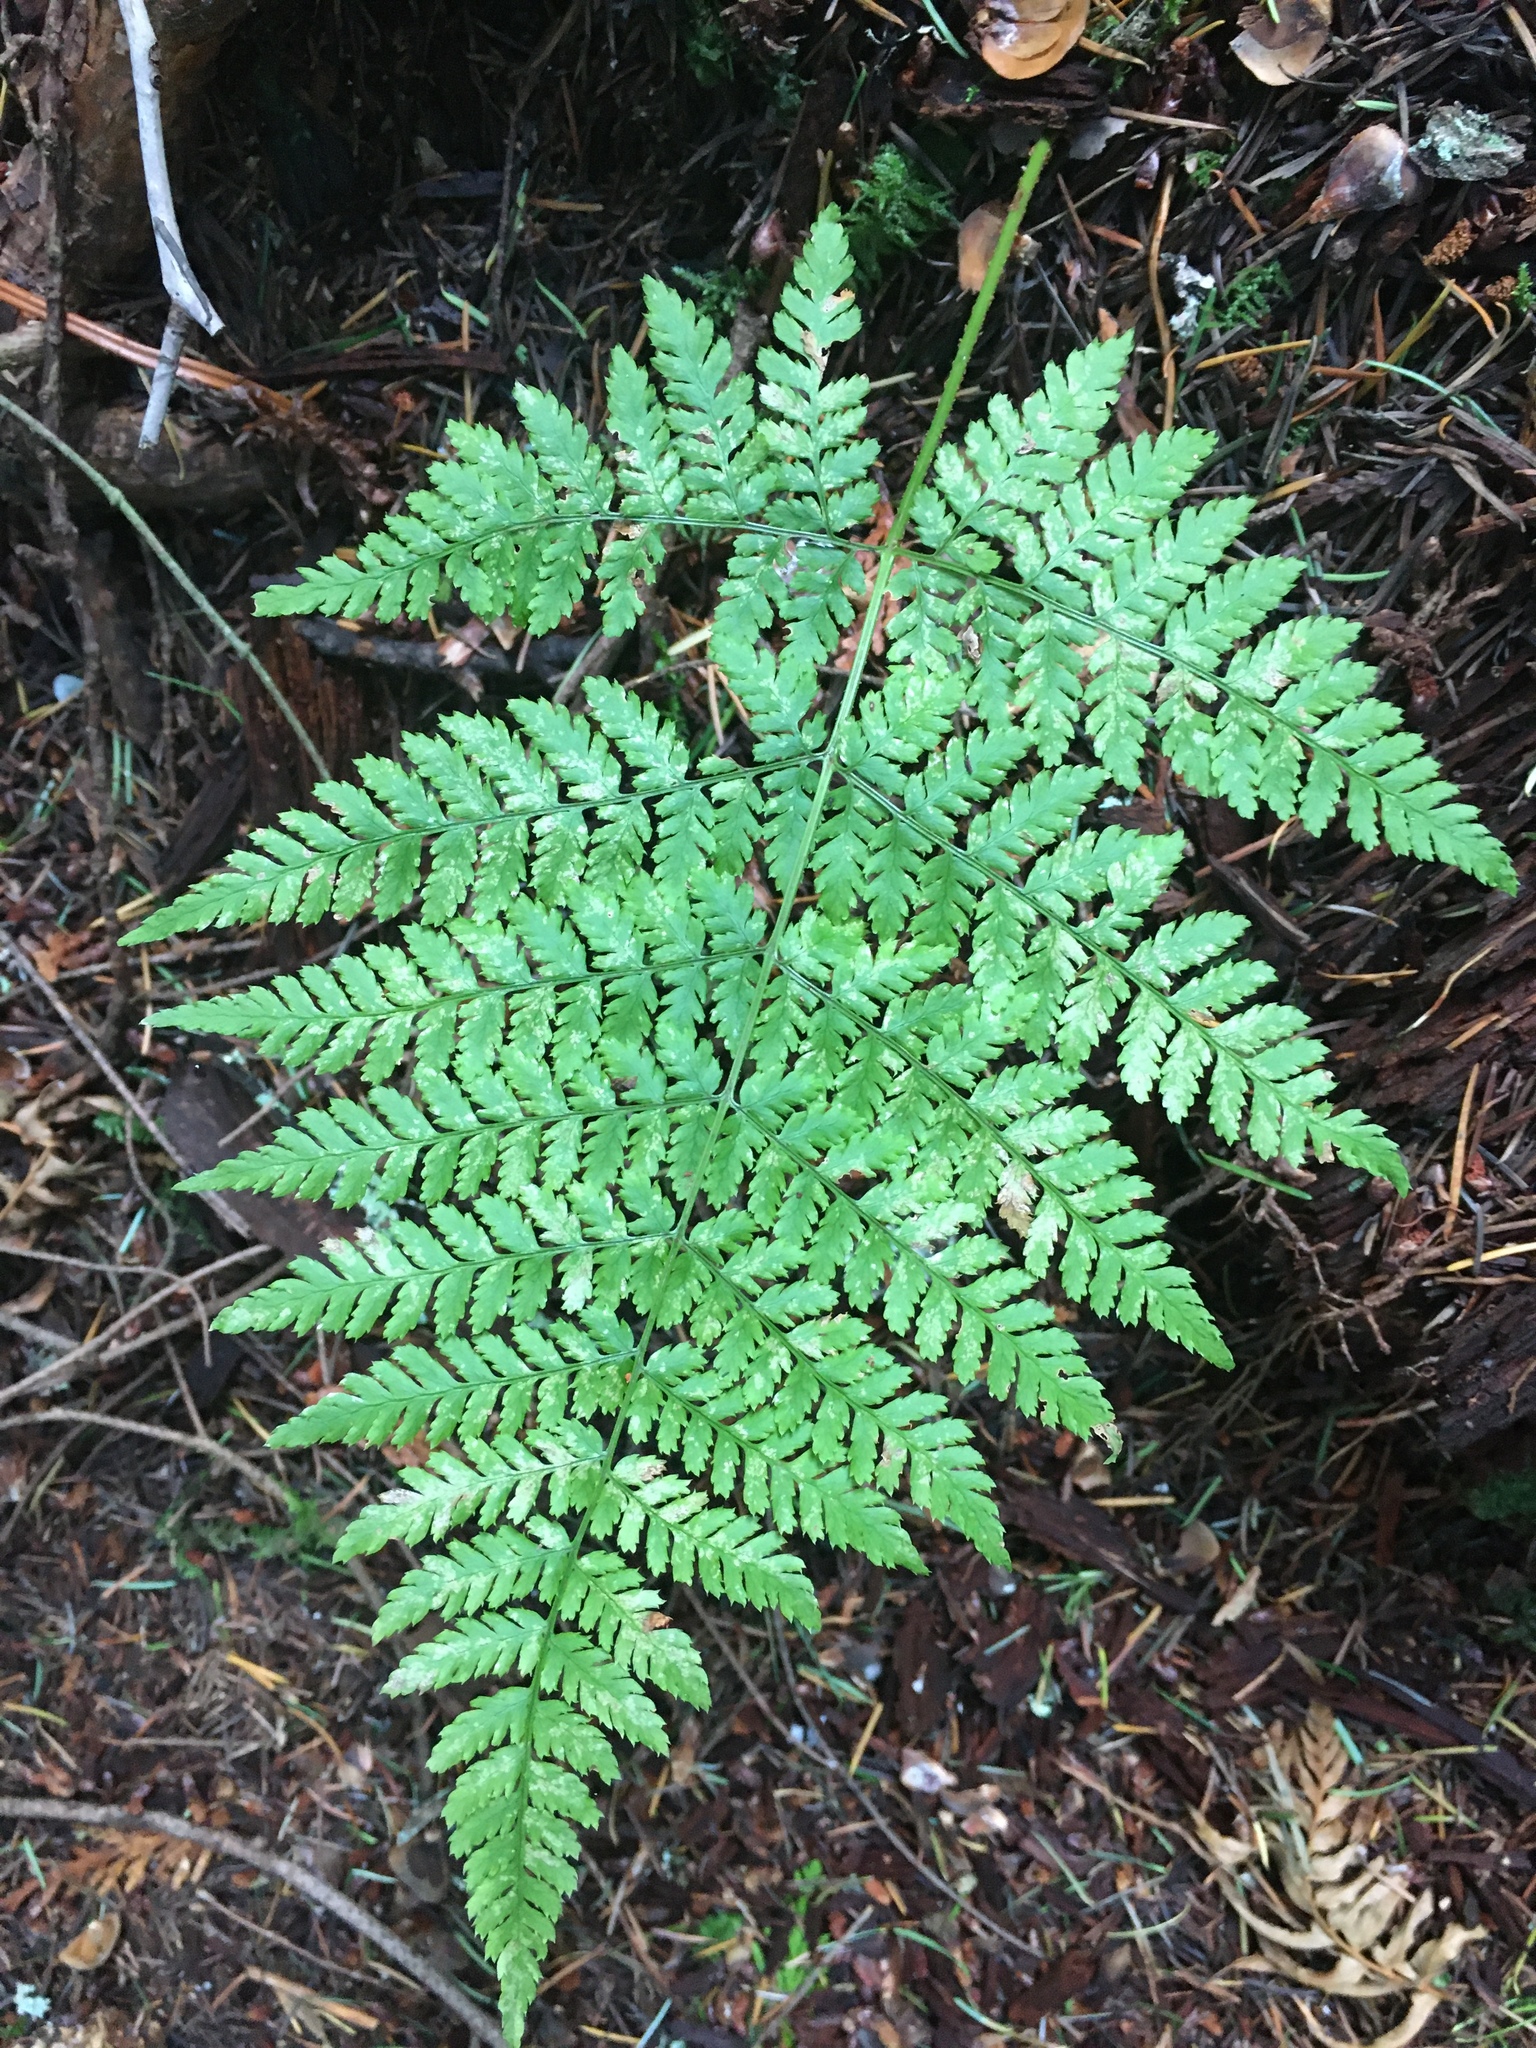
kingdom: Plantae
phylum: Tracheophyta
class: Polypodiopsida
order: Polypodiales
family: Dryopteridaceae
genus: Dryopteris
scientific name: Dryopteris expansa
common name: Northern buckler fern
